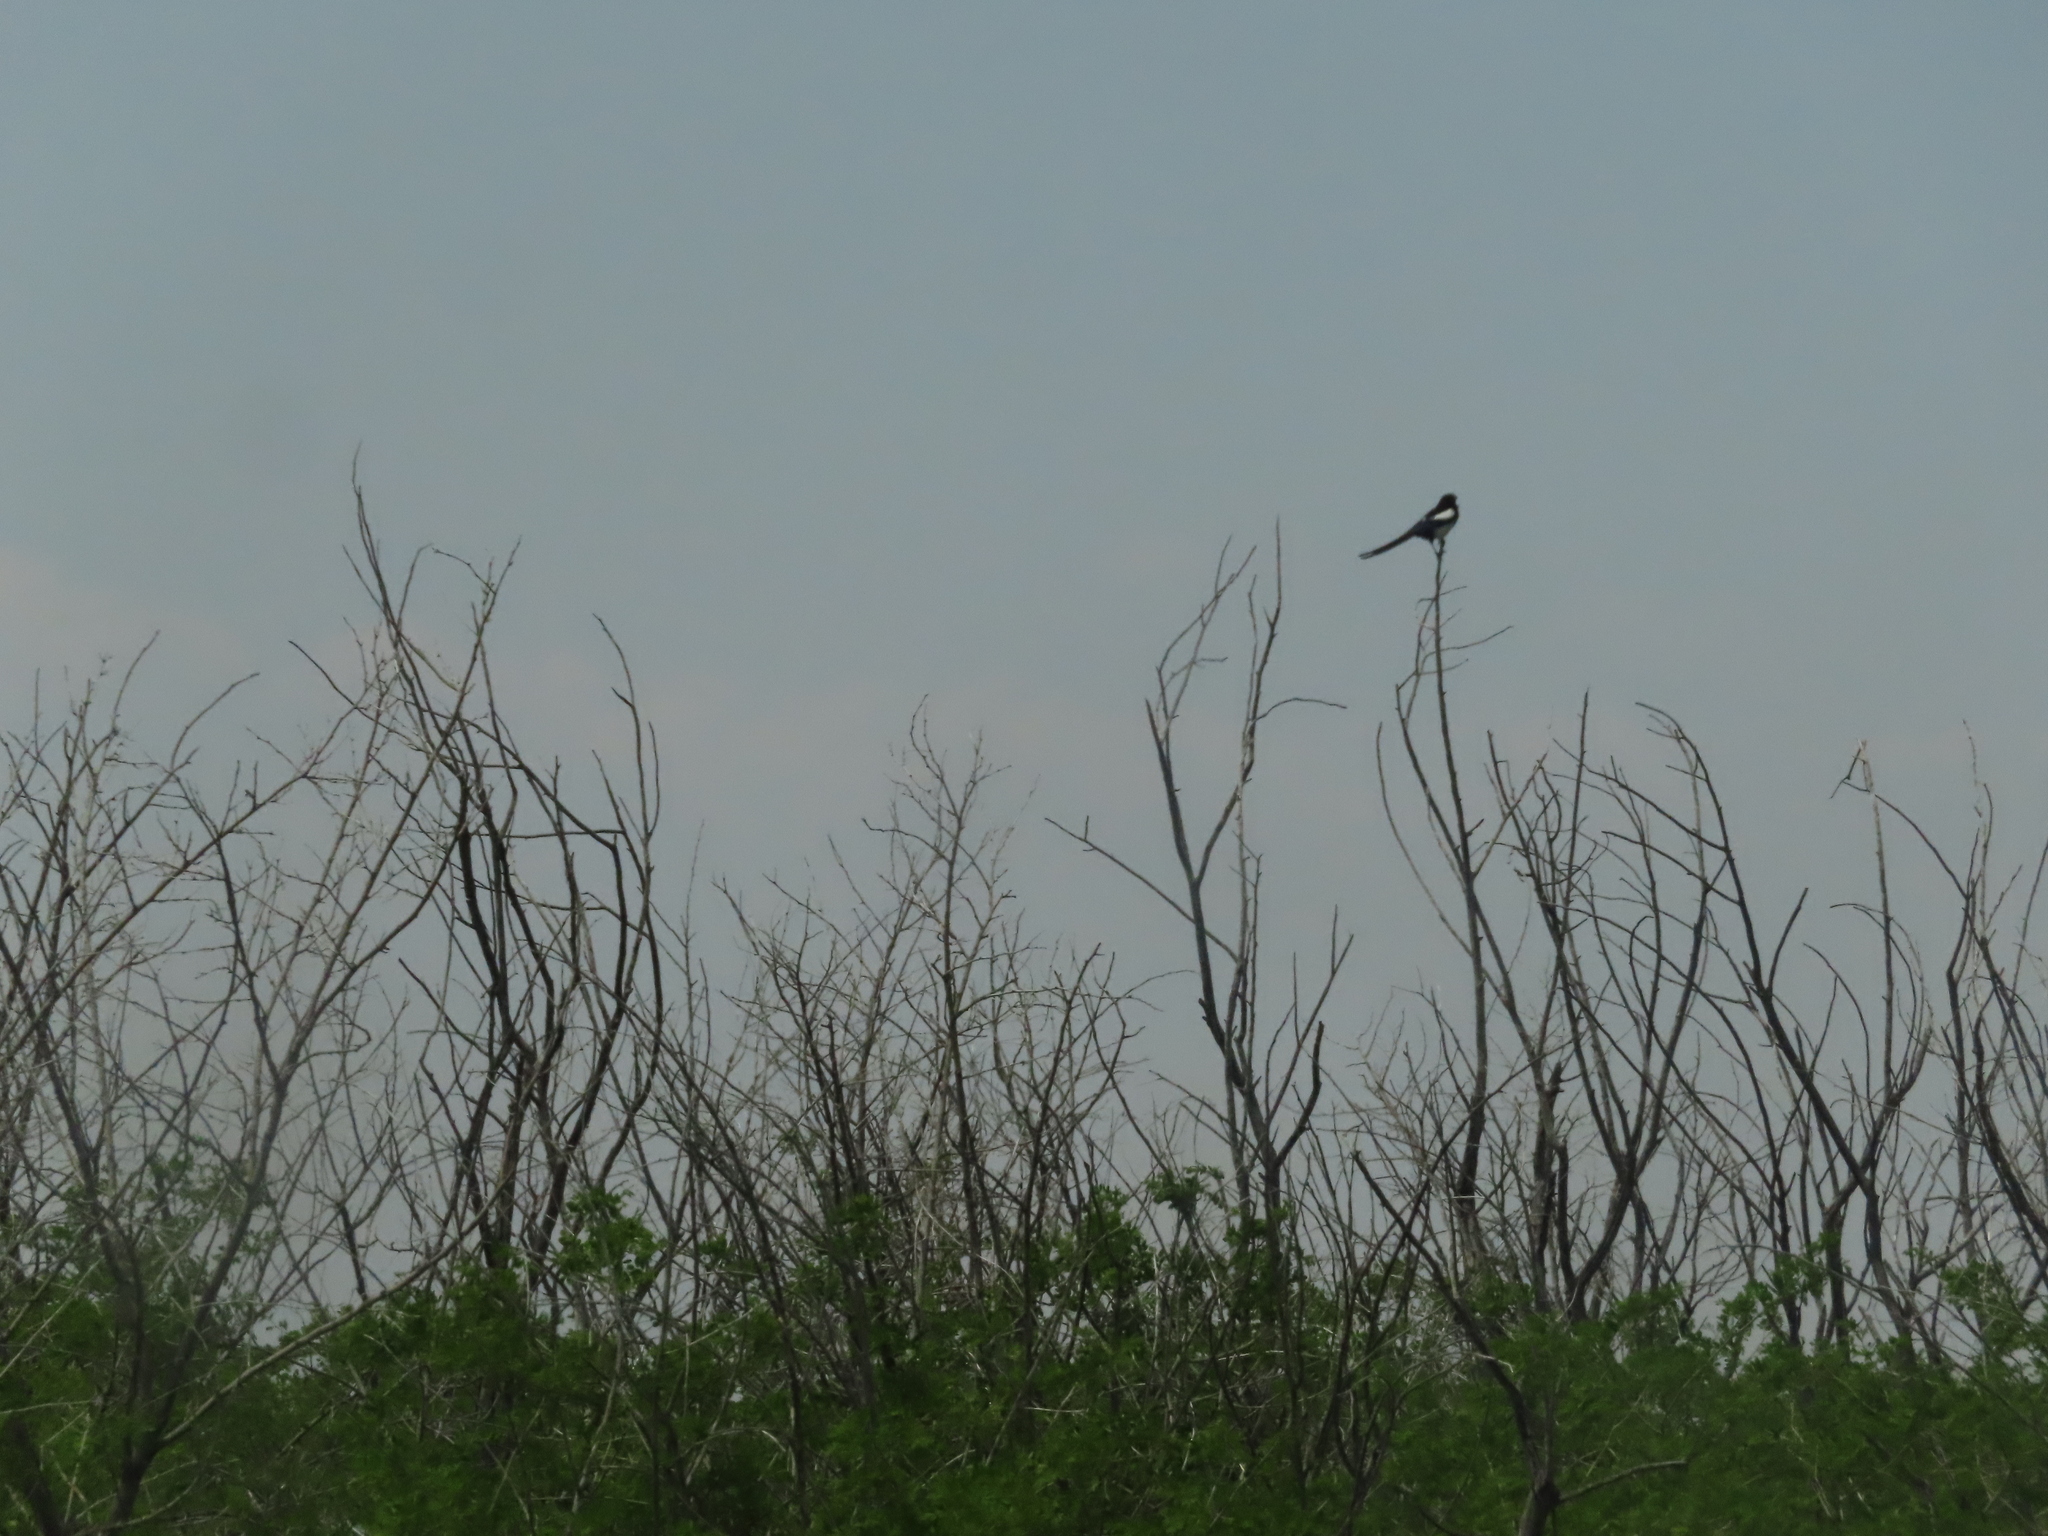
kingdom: Animalia
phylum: Chordata
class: Aves
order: Passeriformes
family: Corvidae
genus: Pica
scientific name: Pica hudsonia
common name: Black-billed magpie
